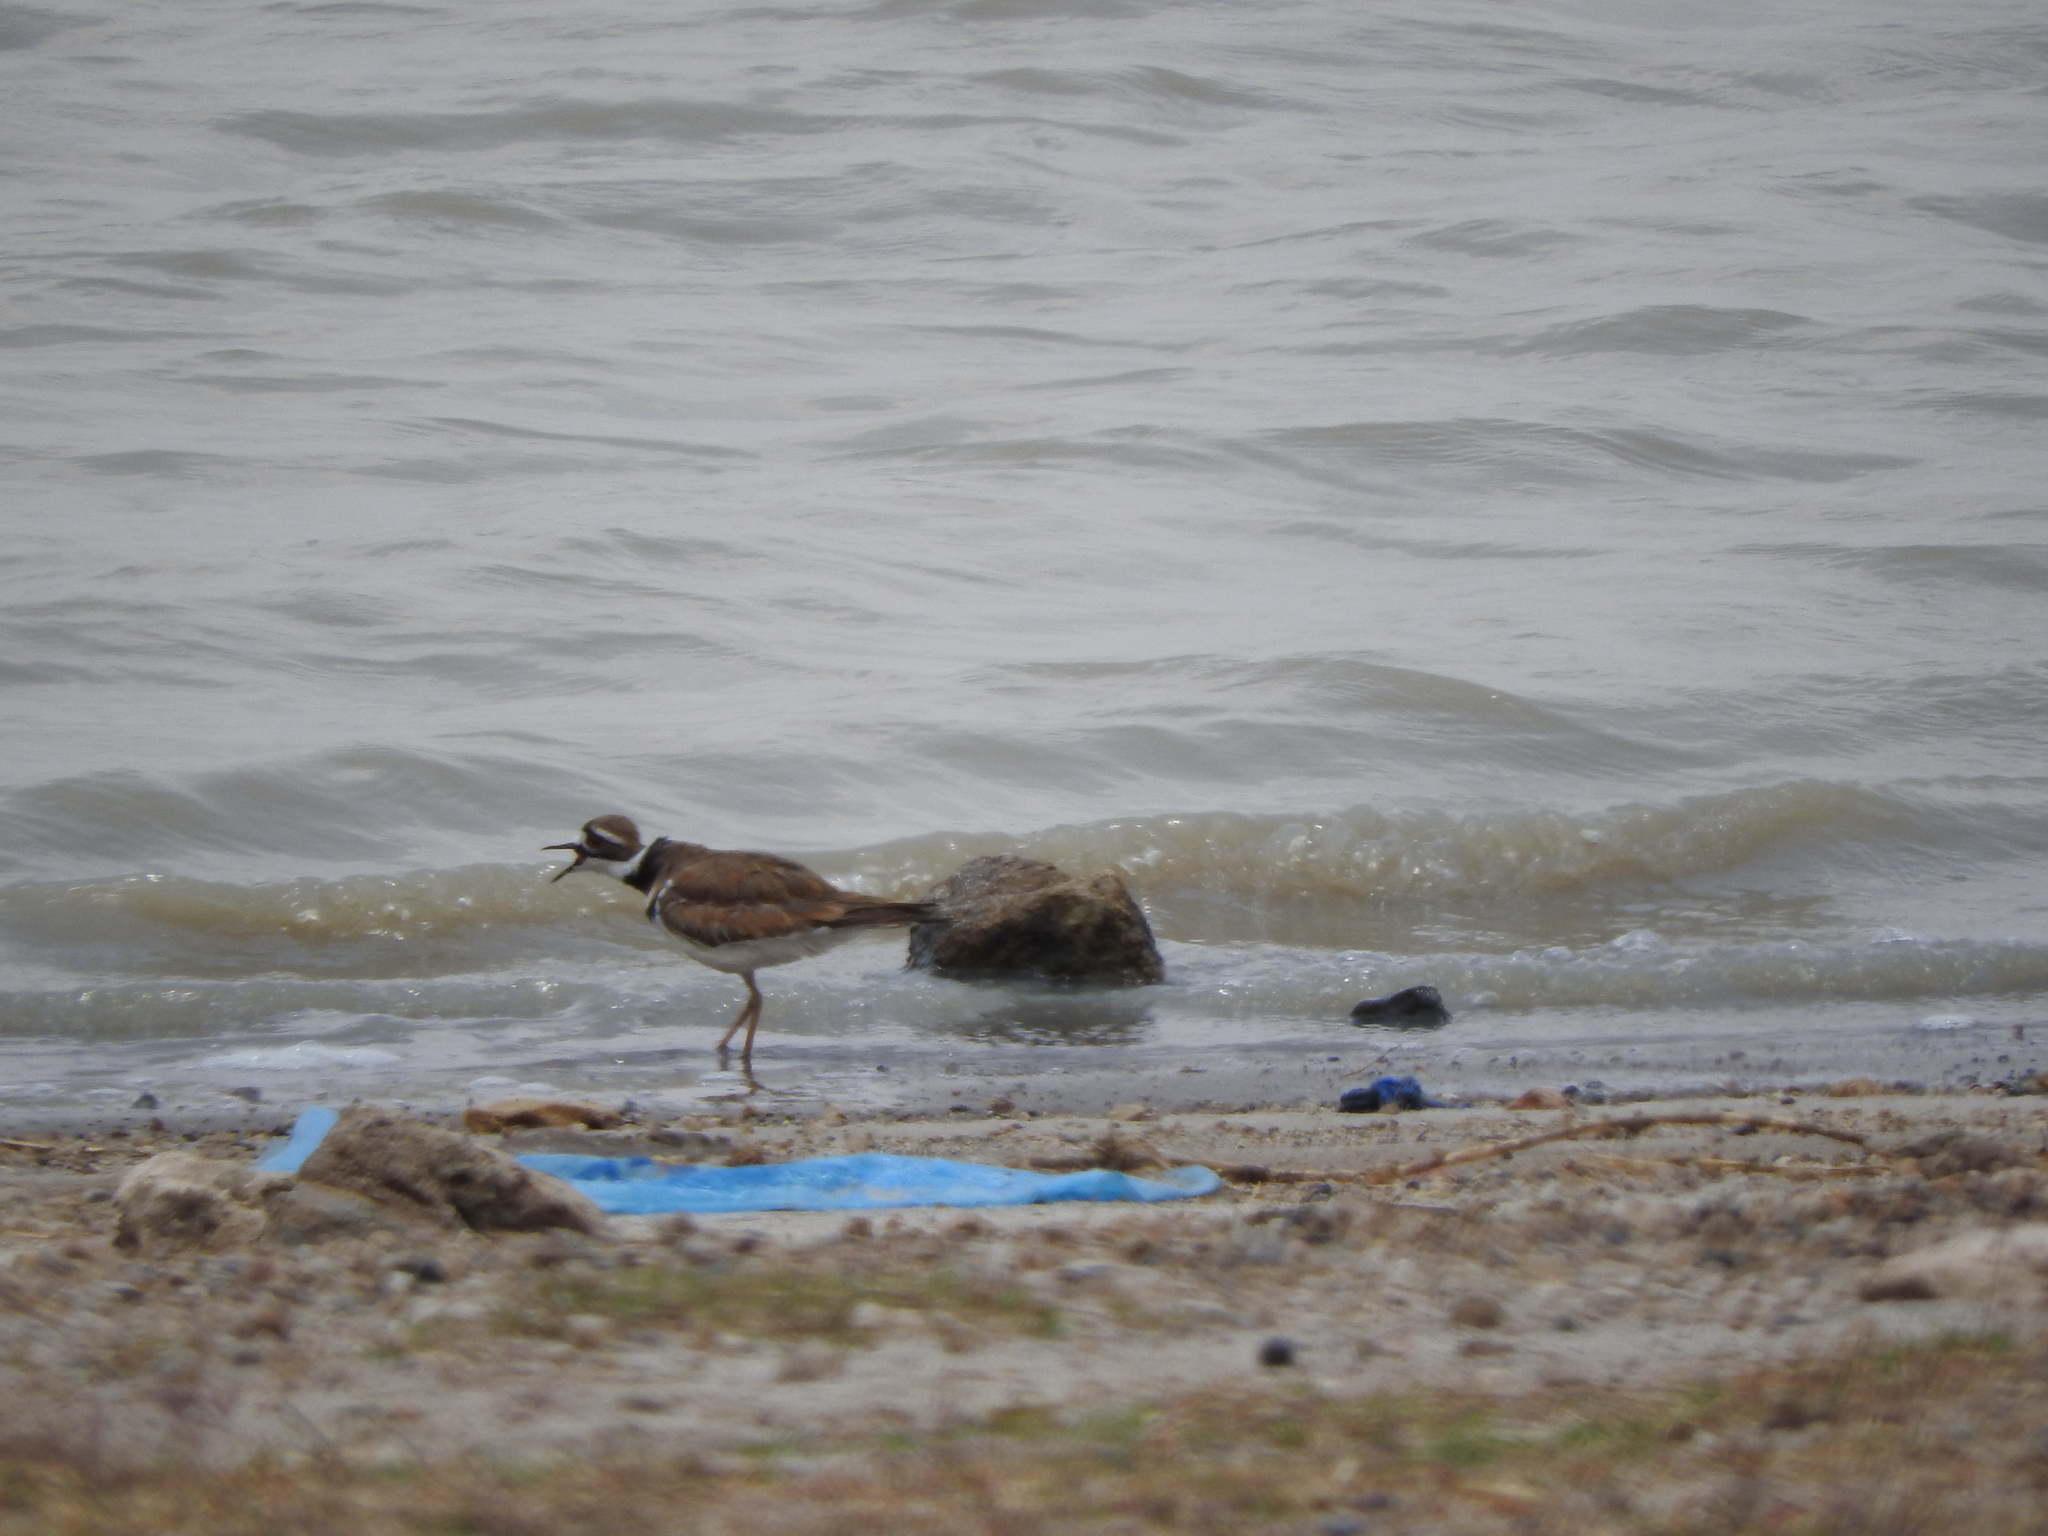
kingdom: Animalia
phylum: Chordata
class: Aves
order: Charadriiformes
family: Charadriidae
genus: Charadrius
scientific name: Charadrius vociferus
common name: Killdeer
